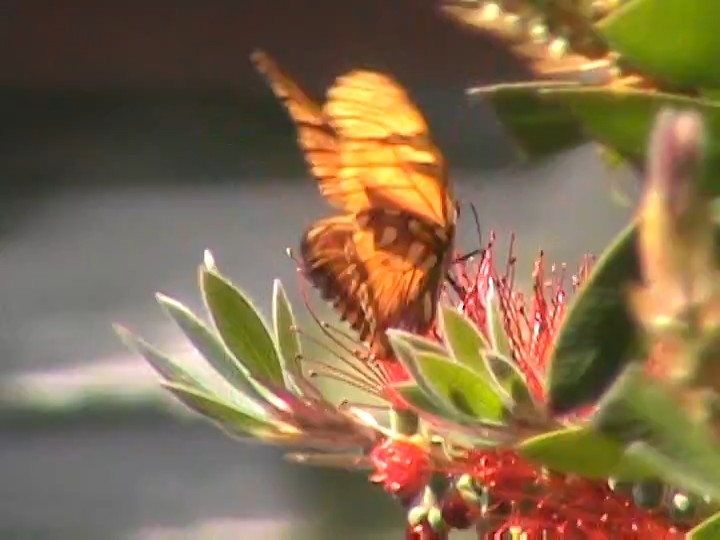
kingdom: Animalia
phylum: Arthropoda
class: Insecta
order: Lepidoptera
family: Nymphalidae
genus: Dione
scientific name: Dione juno
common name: Juno silverspot
